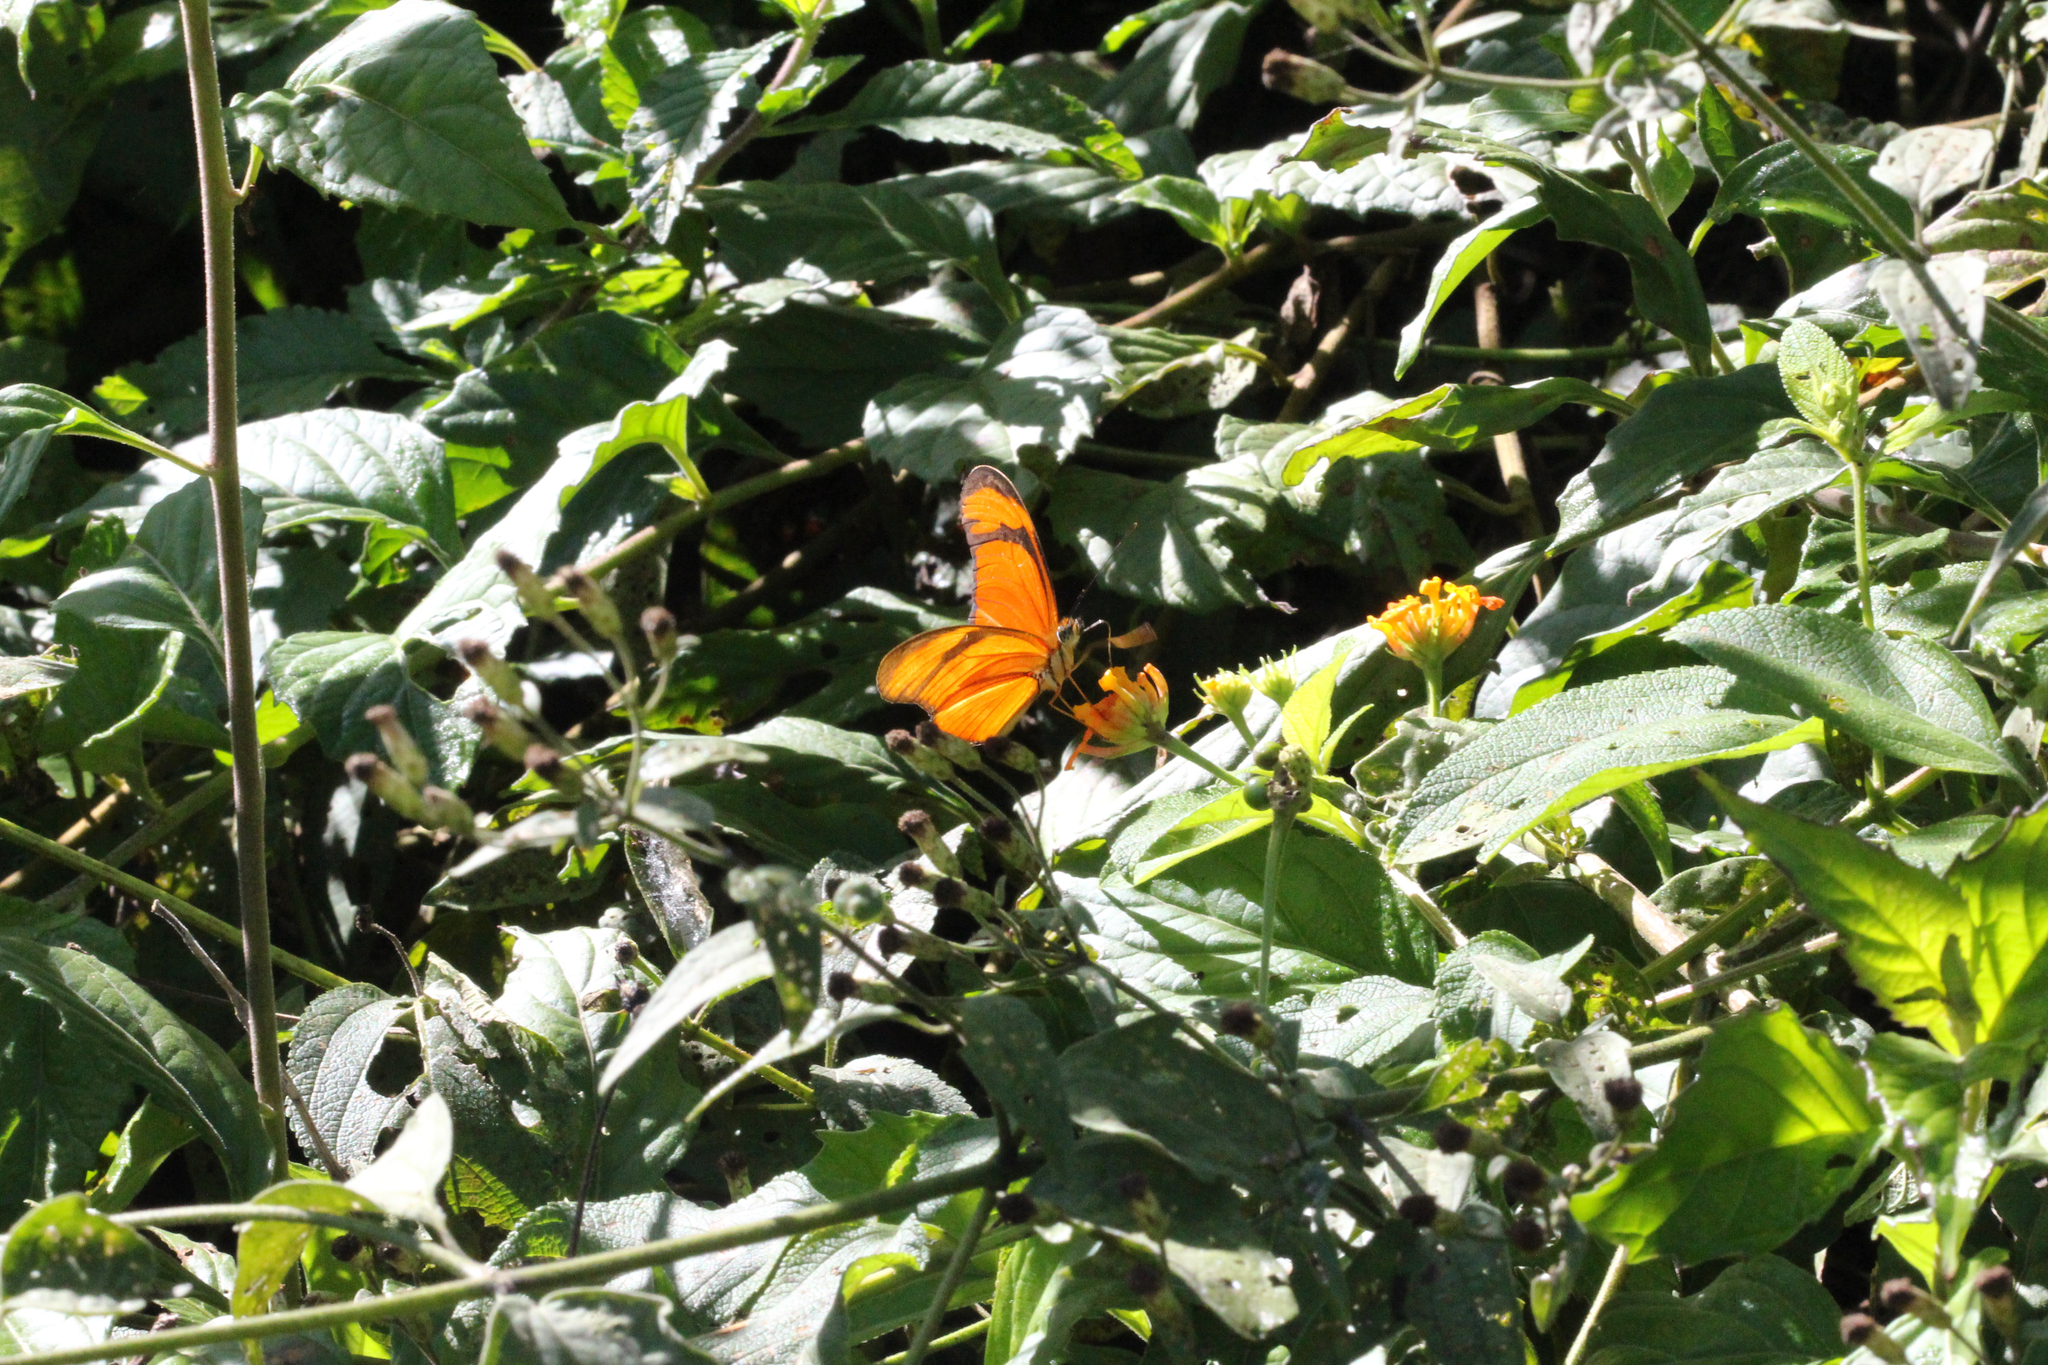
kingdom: Animalia
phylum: Arthropoda
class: Insecta
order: Lepidoptera
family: Nymphalidae
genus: Dryas
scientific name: Dryas iulia
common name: Flambeau
